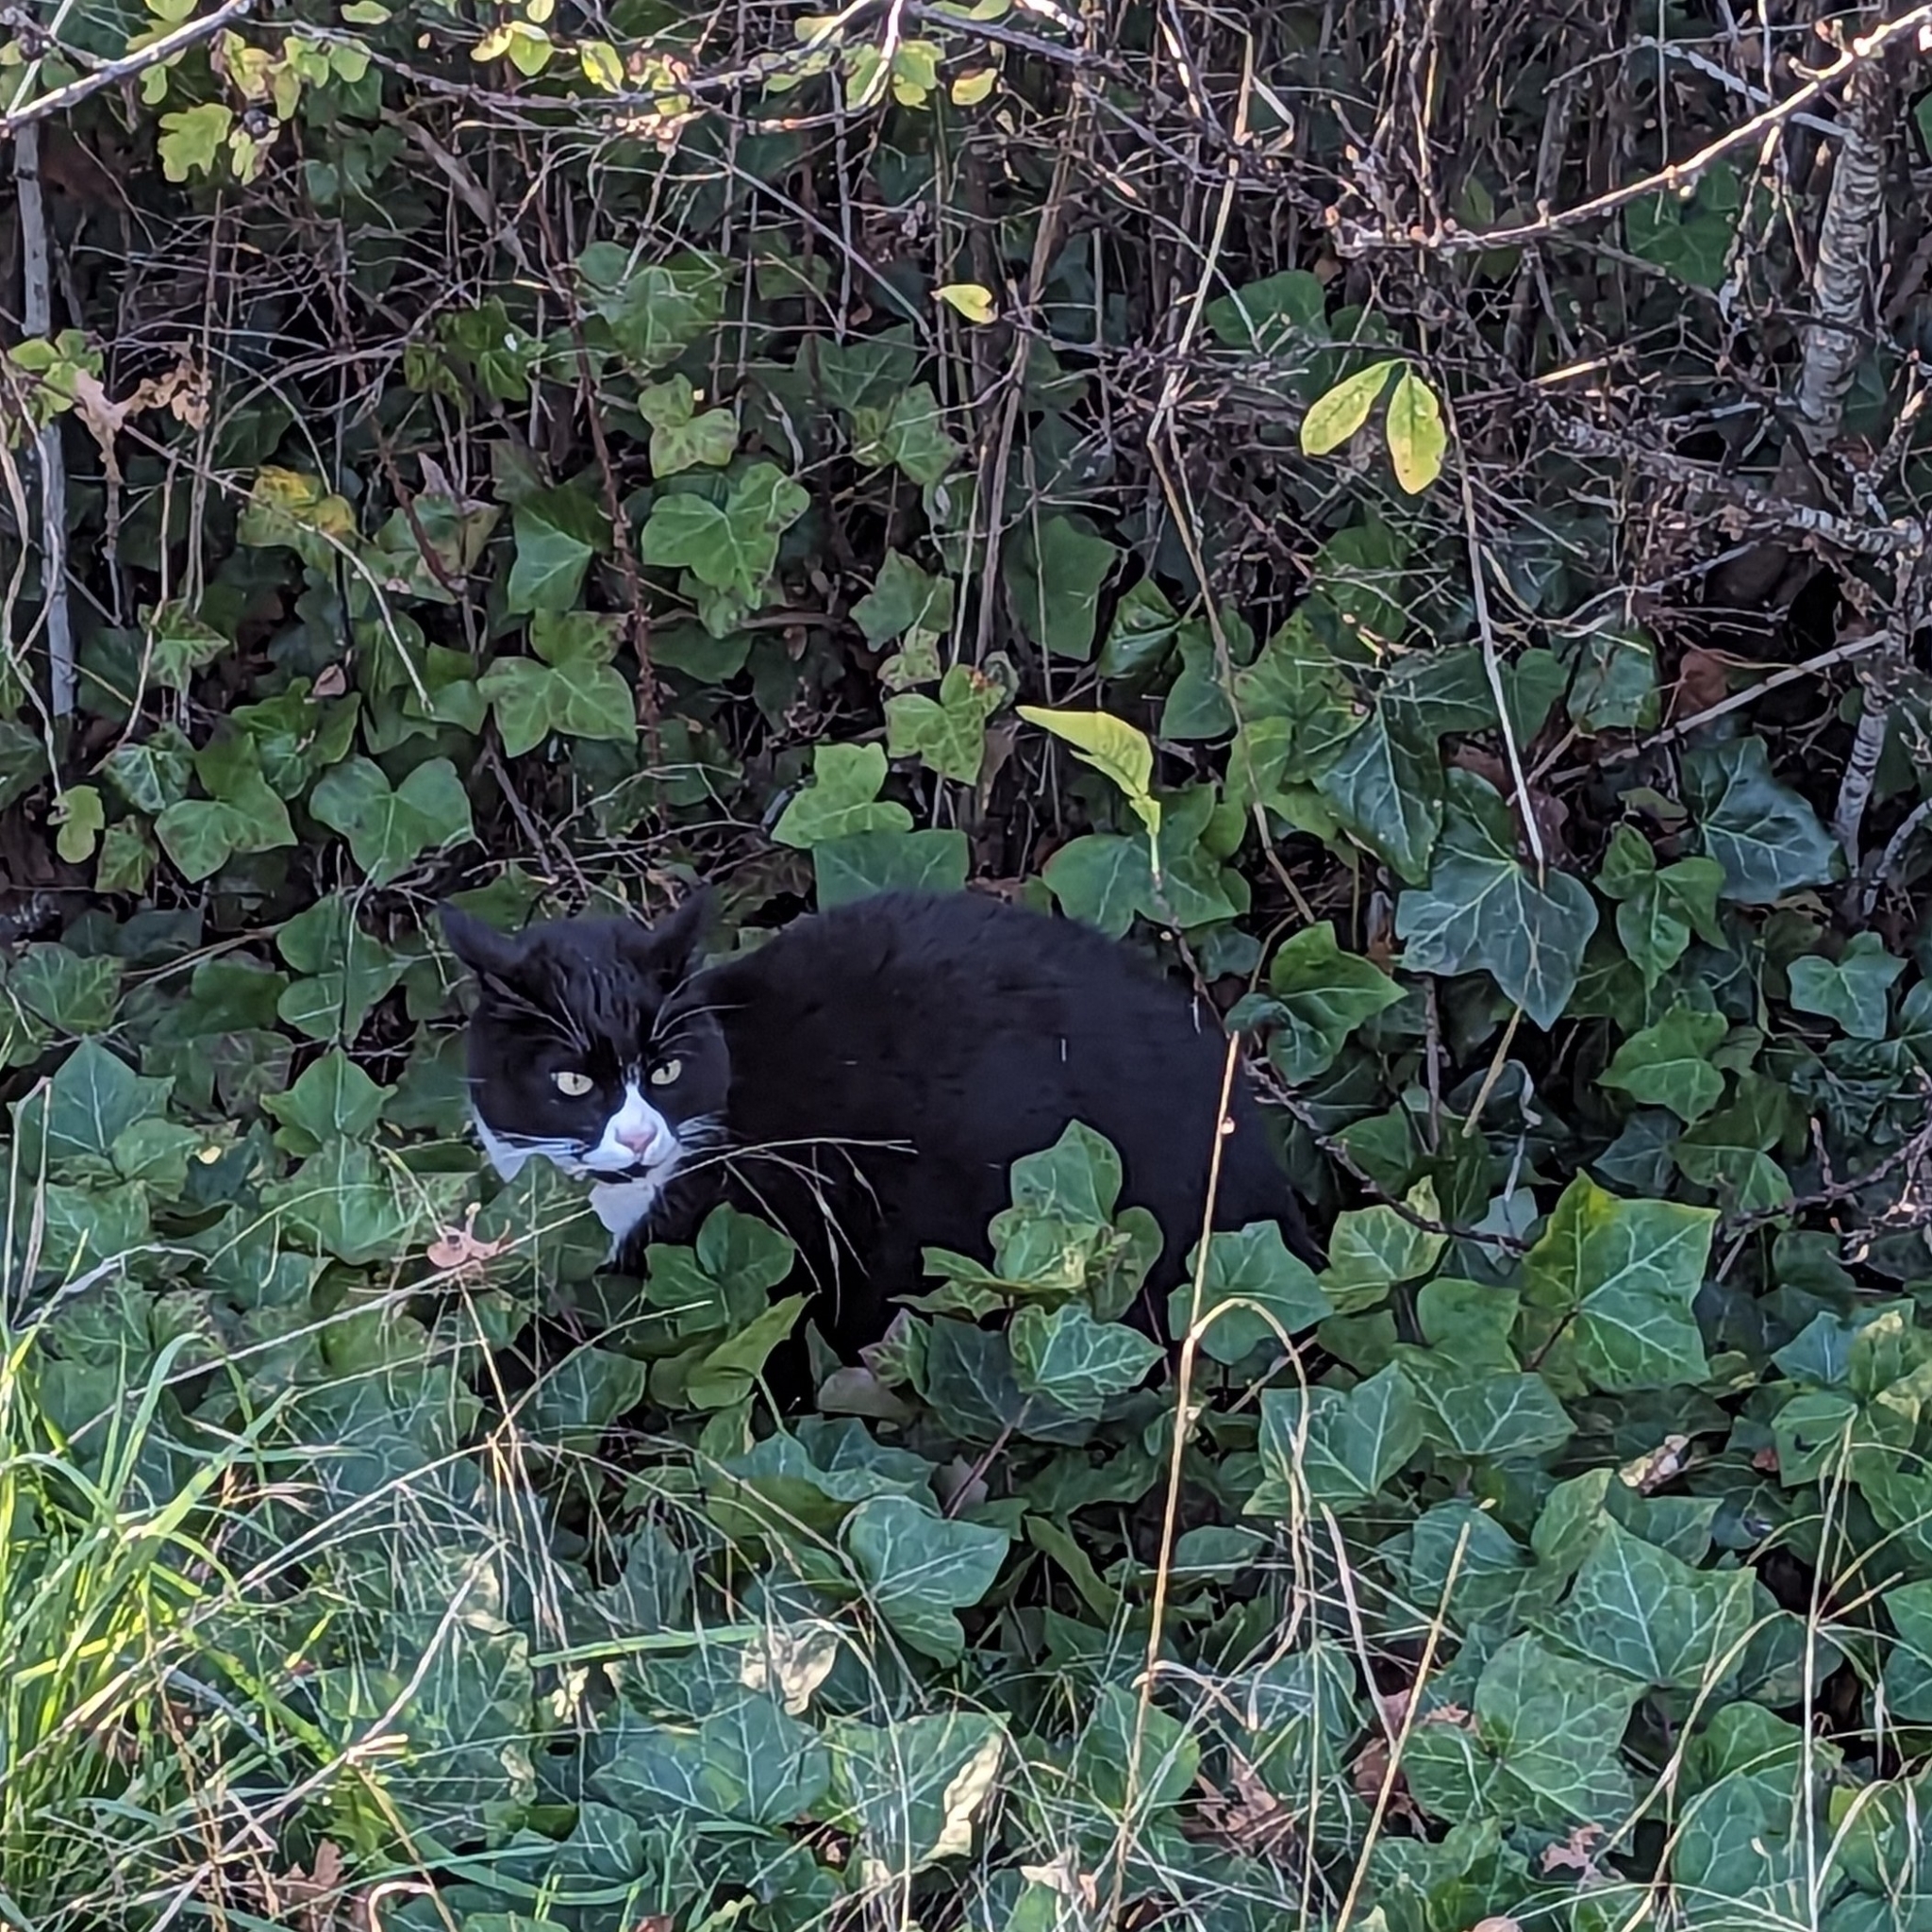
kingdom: Animalia
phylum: Chordata
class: Mammalia
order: Carnivora
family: Felidae
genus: Felis
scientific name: Felis catus
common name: Domestic cat
